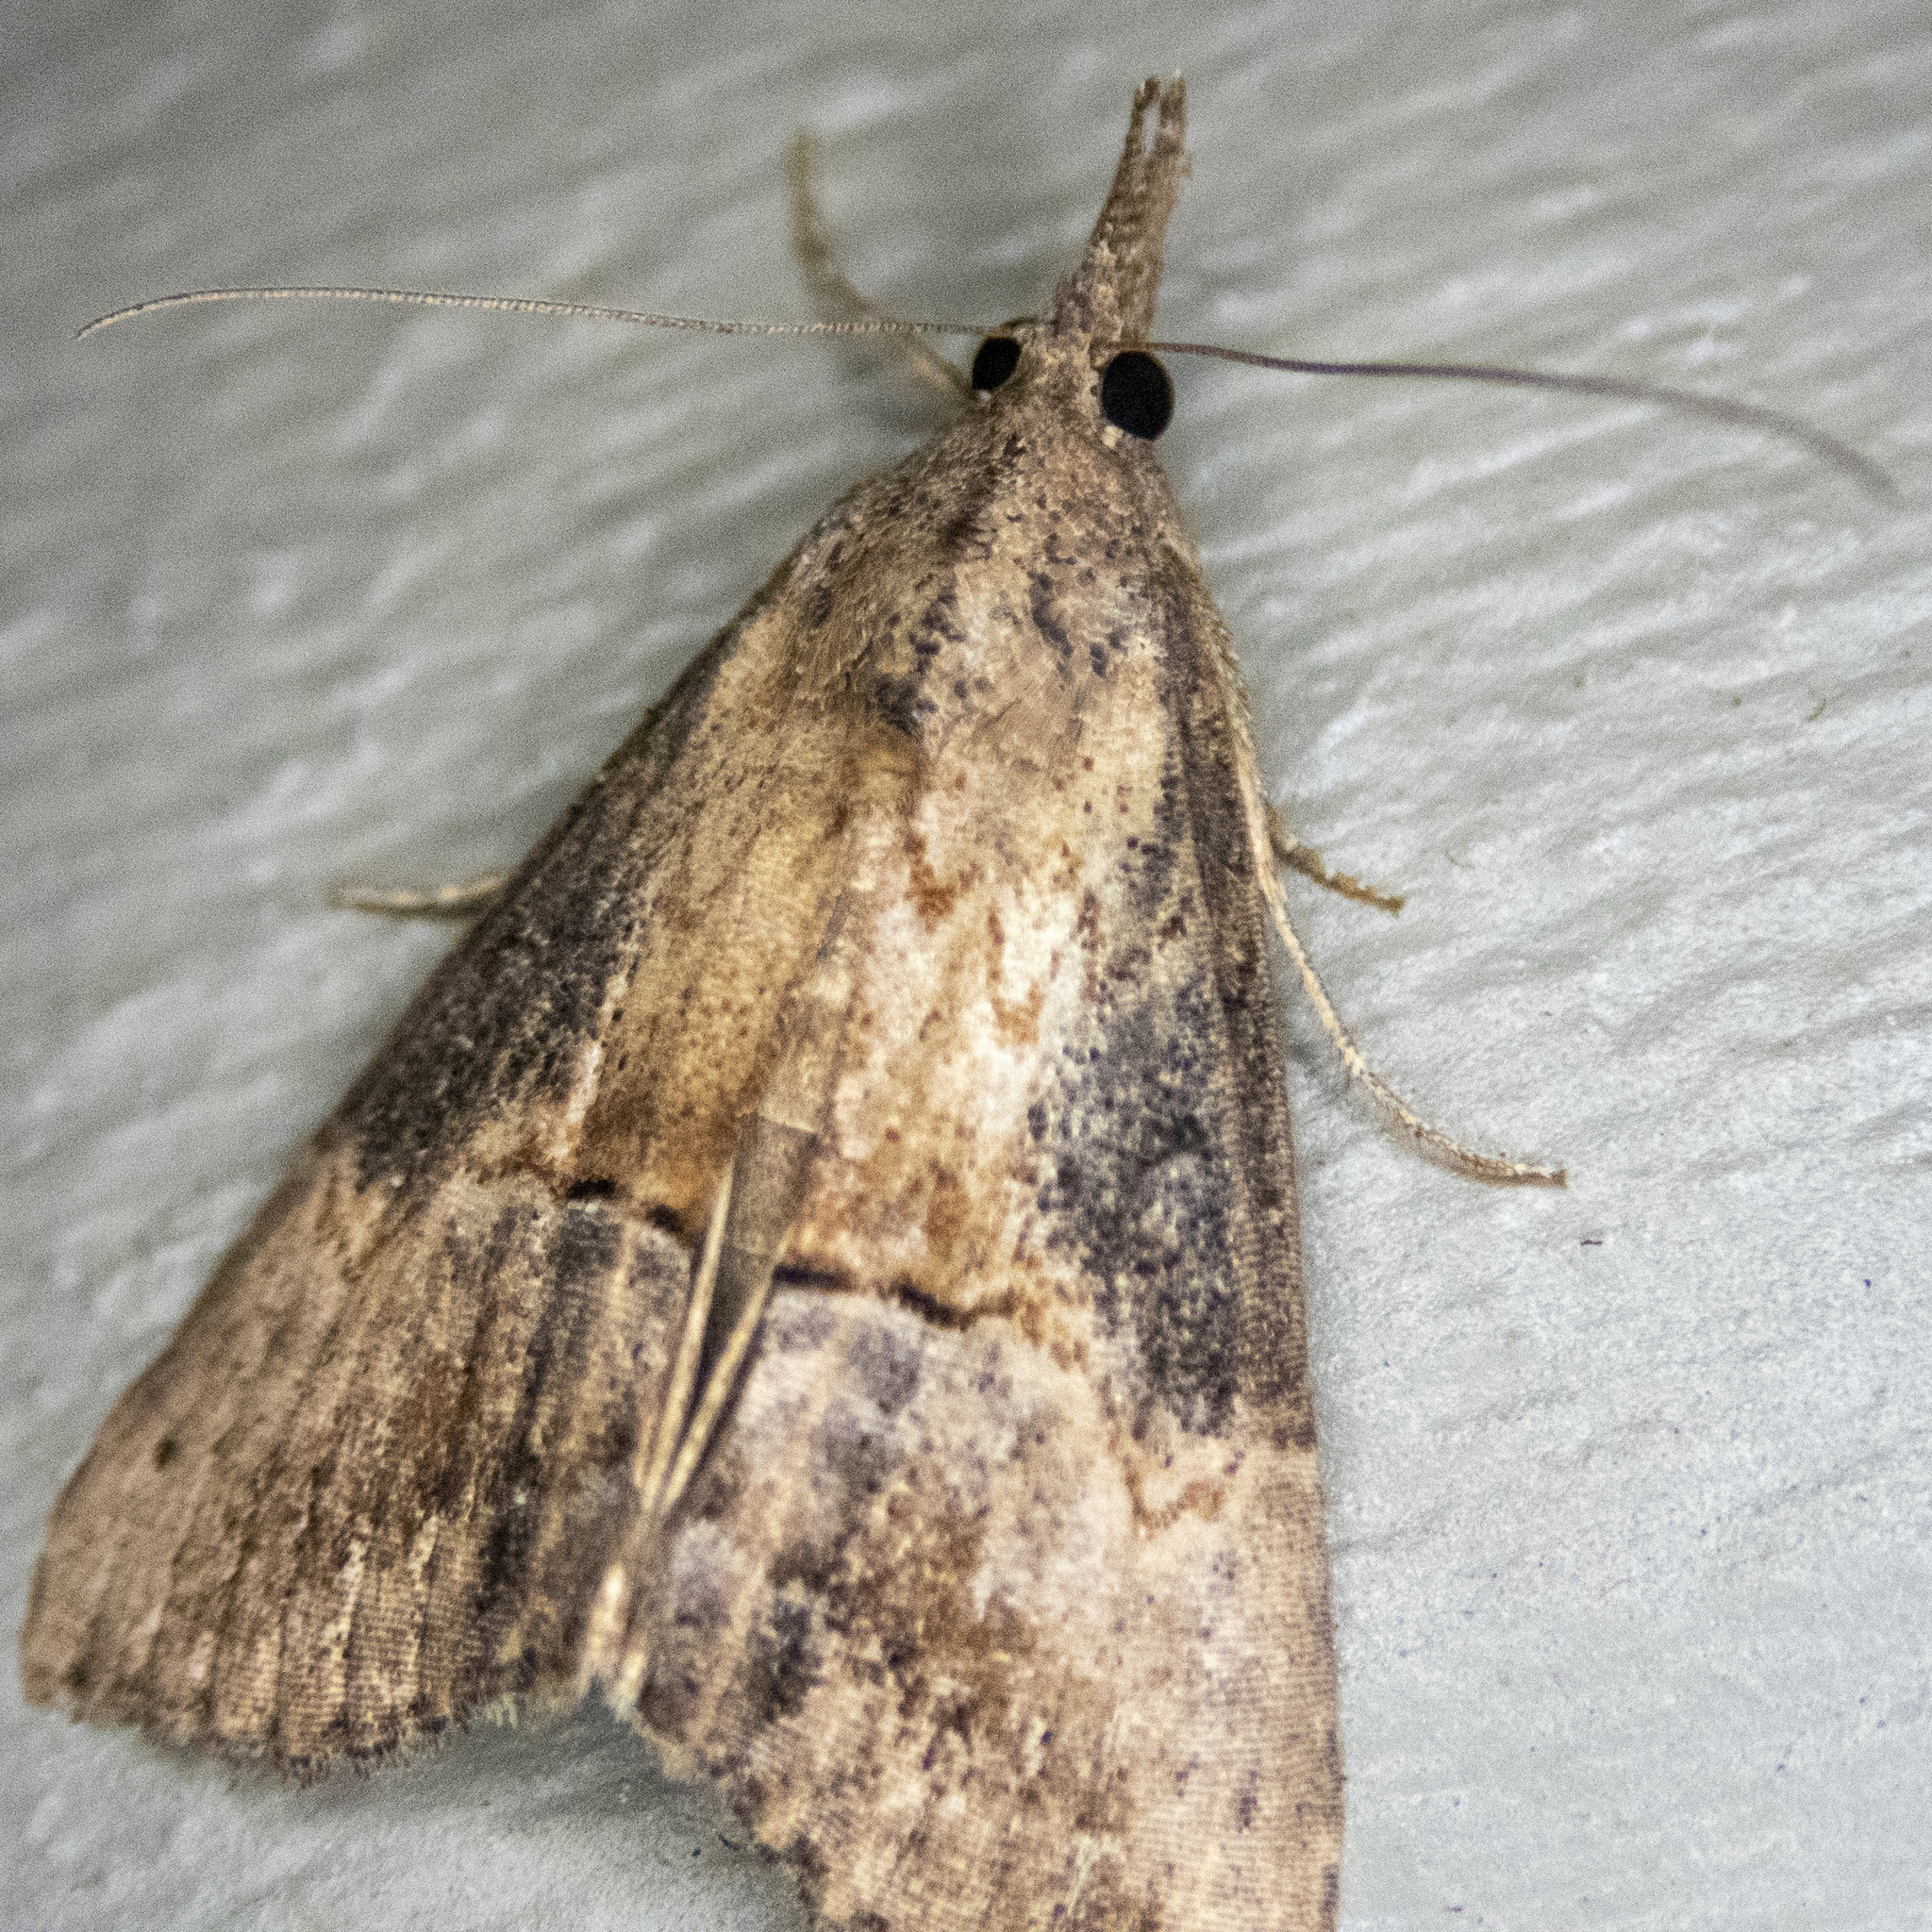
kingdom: Animalia
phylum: Arthropoda
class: Insecta
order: Lepidoptera
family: Erebidae
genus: Hypena
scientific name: Hypena scabra
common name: Green cloverworm
